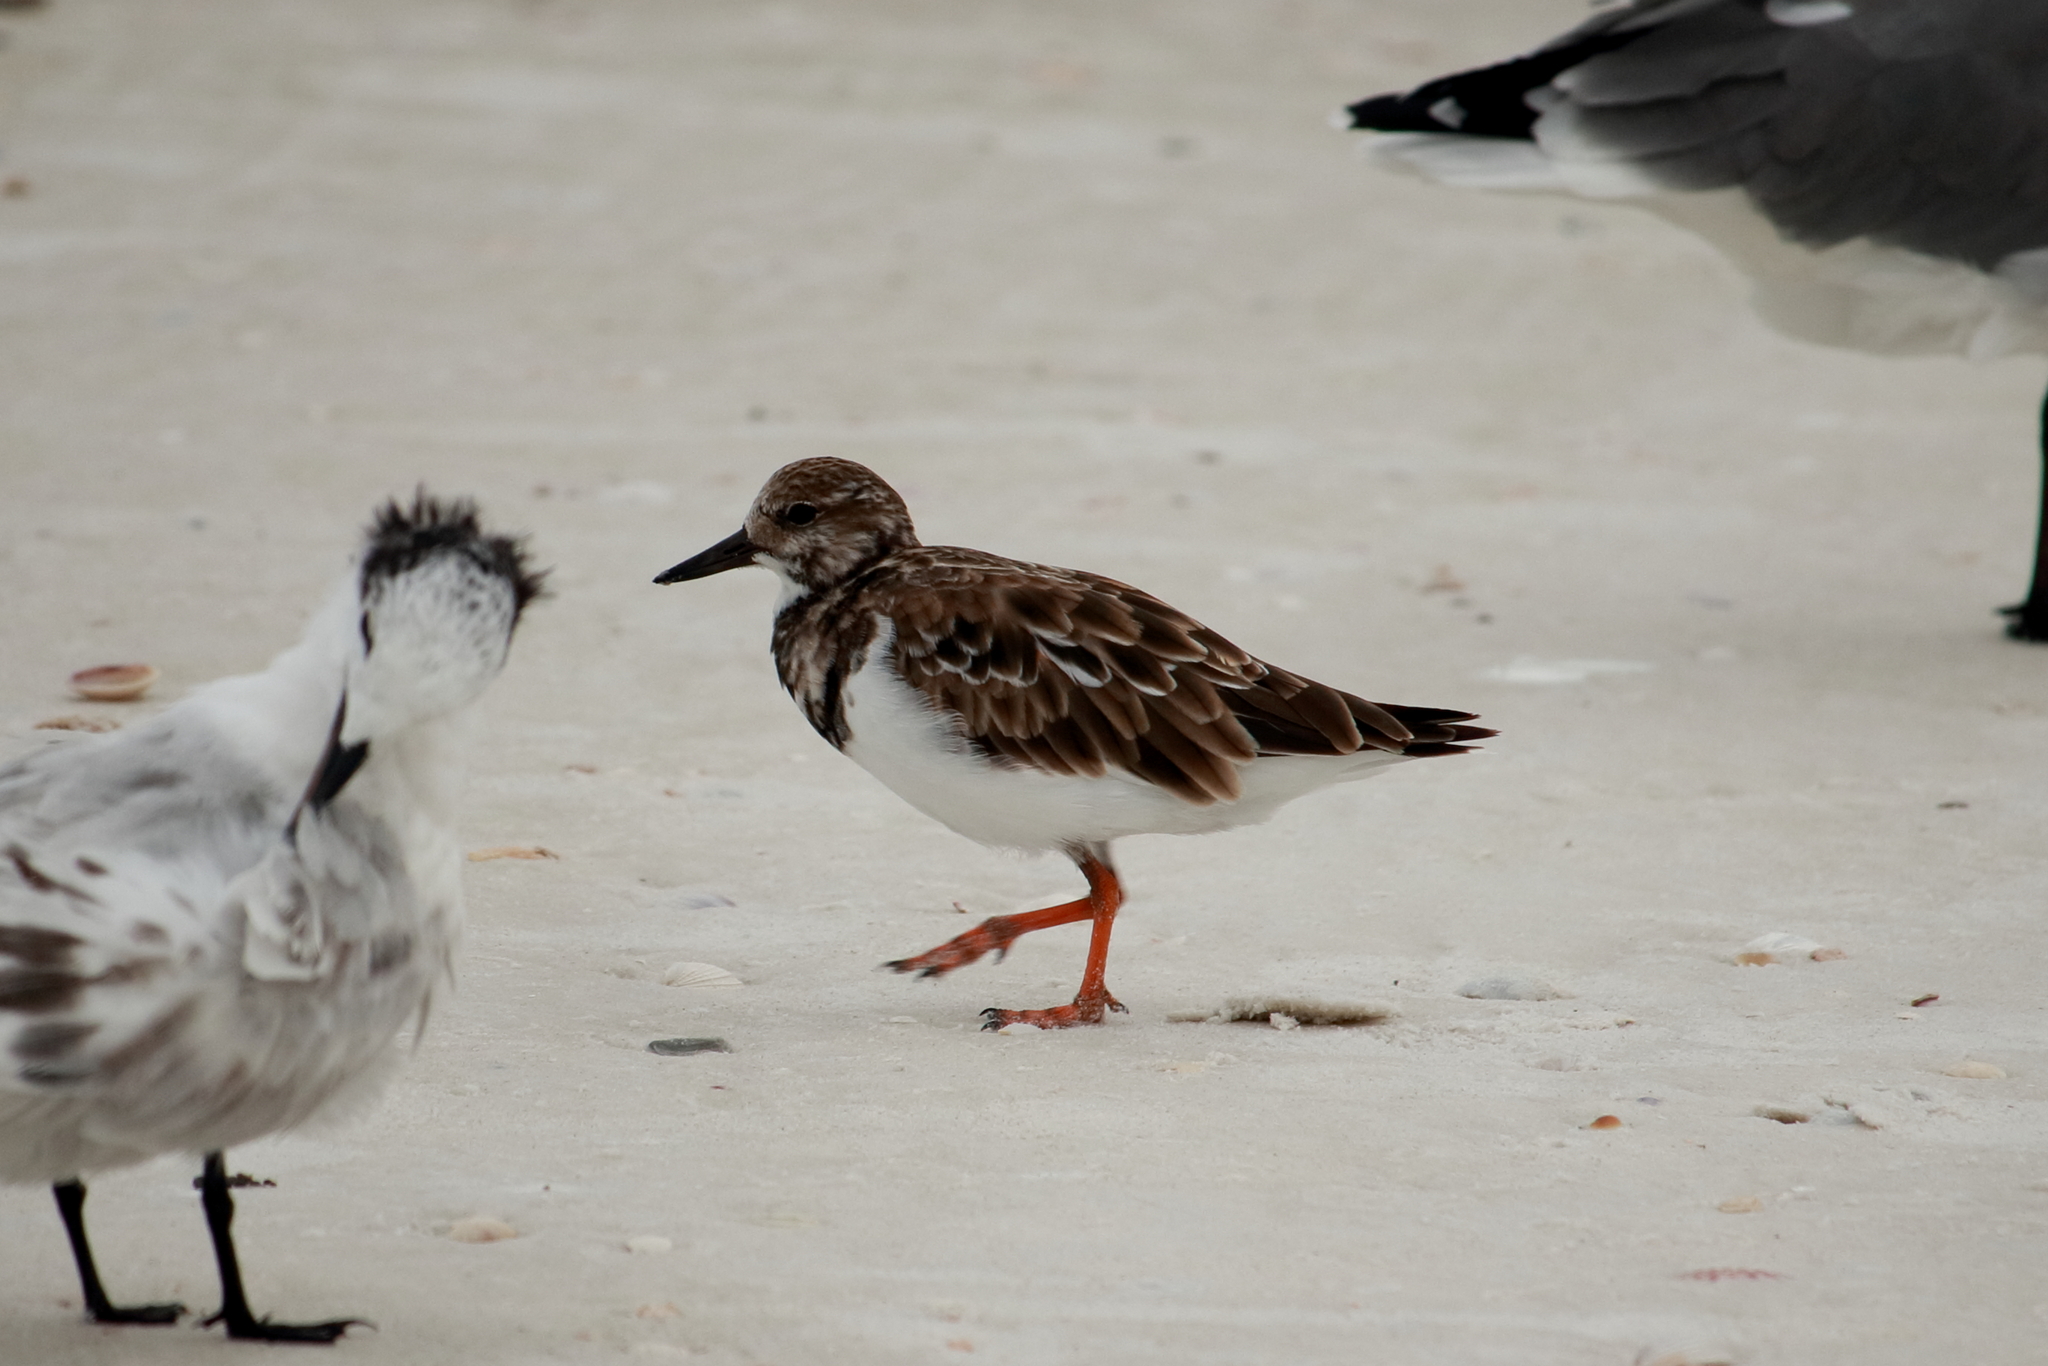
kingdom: Animalia
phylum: Chordata
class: Aves
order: Charadriiformes
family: Scolopacidae
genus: Arenaria
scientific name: Arenaria interpres
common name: Ruddy turnstone
